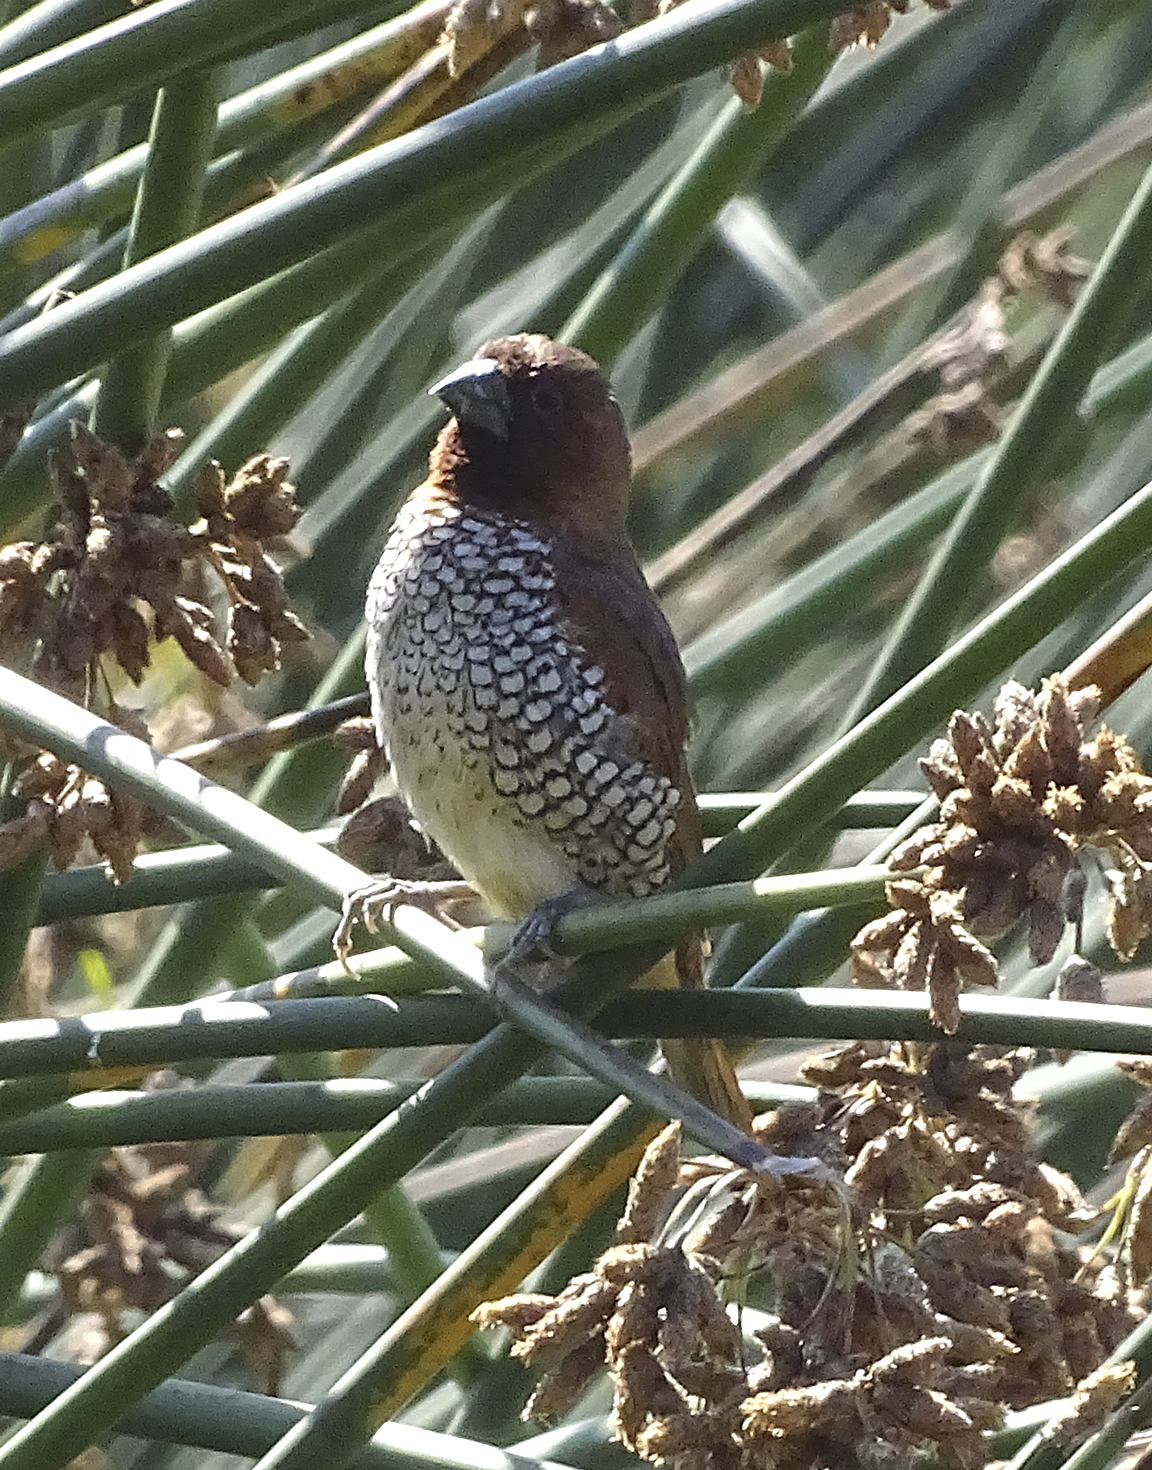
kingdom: Animalia
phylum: Chordata
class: Aves
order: Passeriformes
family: Estrildidae
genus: Lonchura
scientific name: Lonchura punctulata
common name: Scaly-breasted munia
